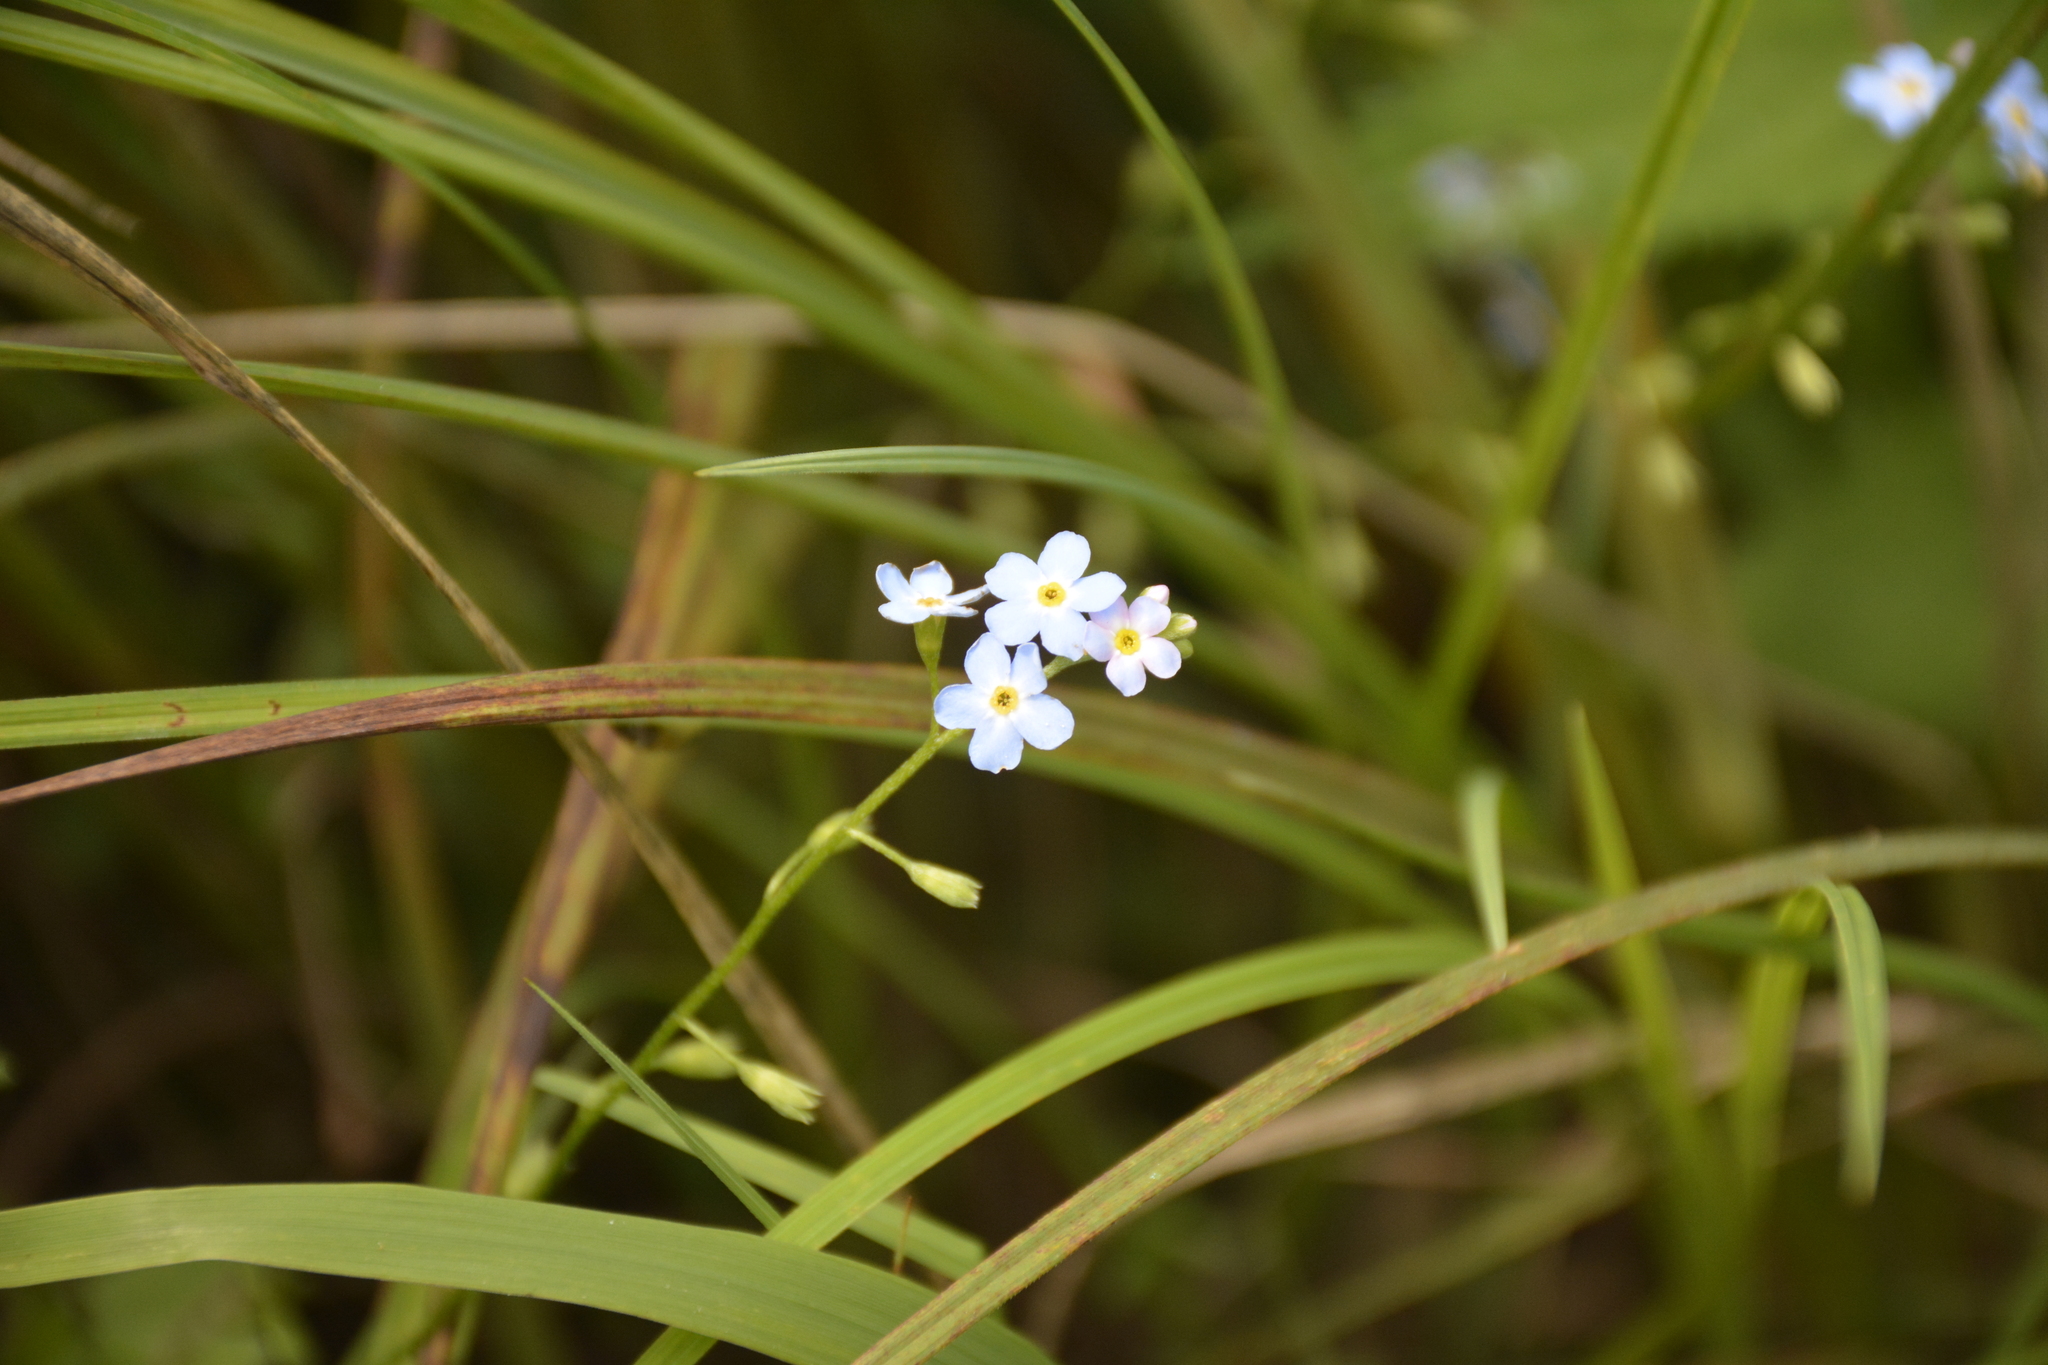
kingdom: Plantae
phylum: Tracheophyta
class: Magnoliopsida
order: Boraginales
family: Boraginaceae
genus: Myosotis
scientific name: Myosotis scorpioides
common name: Water forget-me-not
